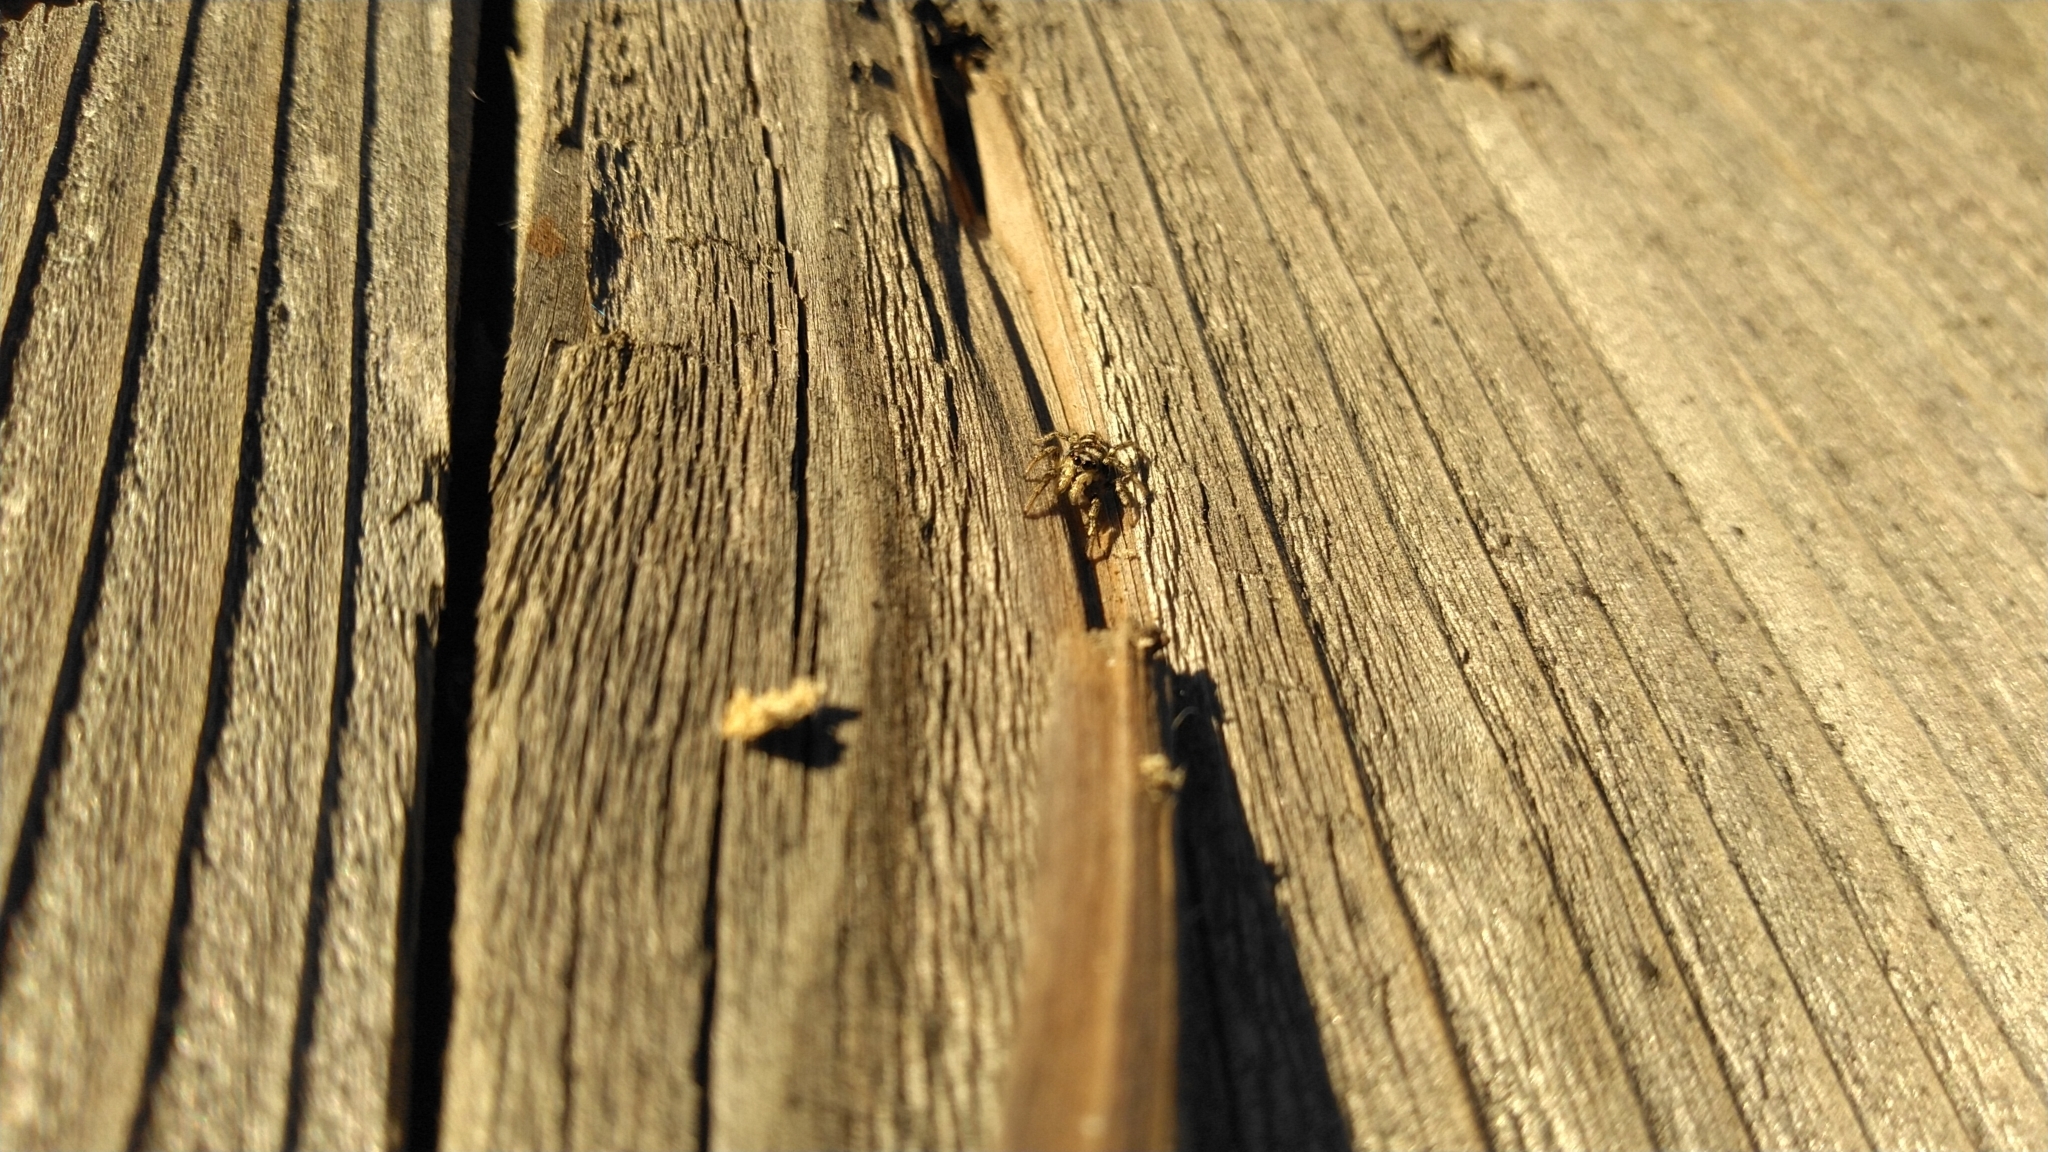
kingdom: Animalia
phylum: Arthropoda
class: Arachnida
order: Araneae
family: Salticidae
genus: Salticus
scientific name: Salticus scenicus
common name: Zebra jumper
